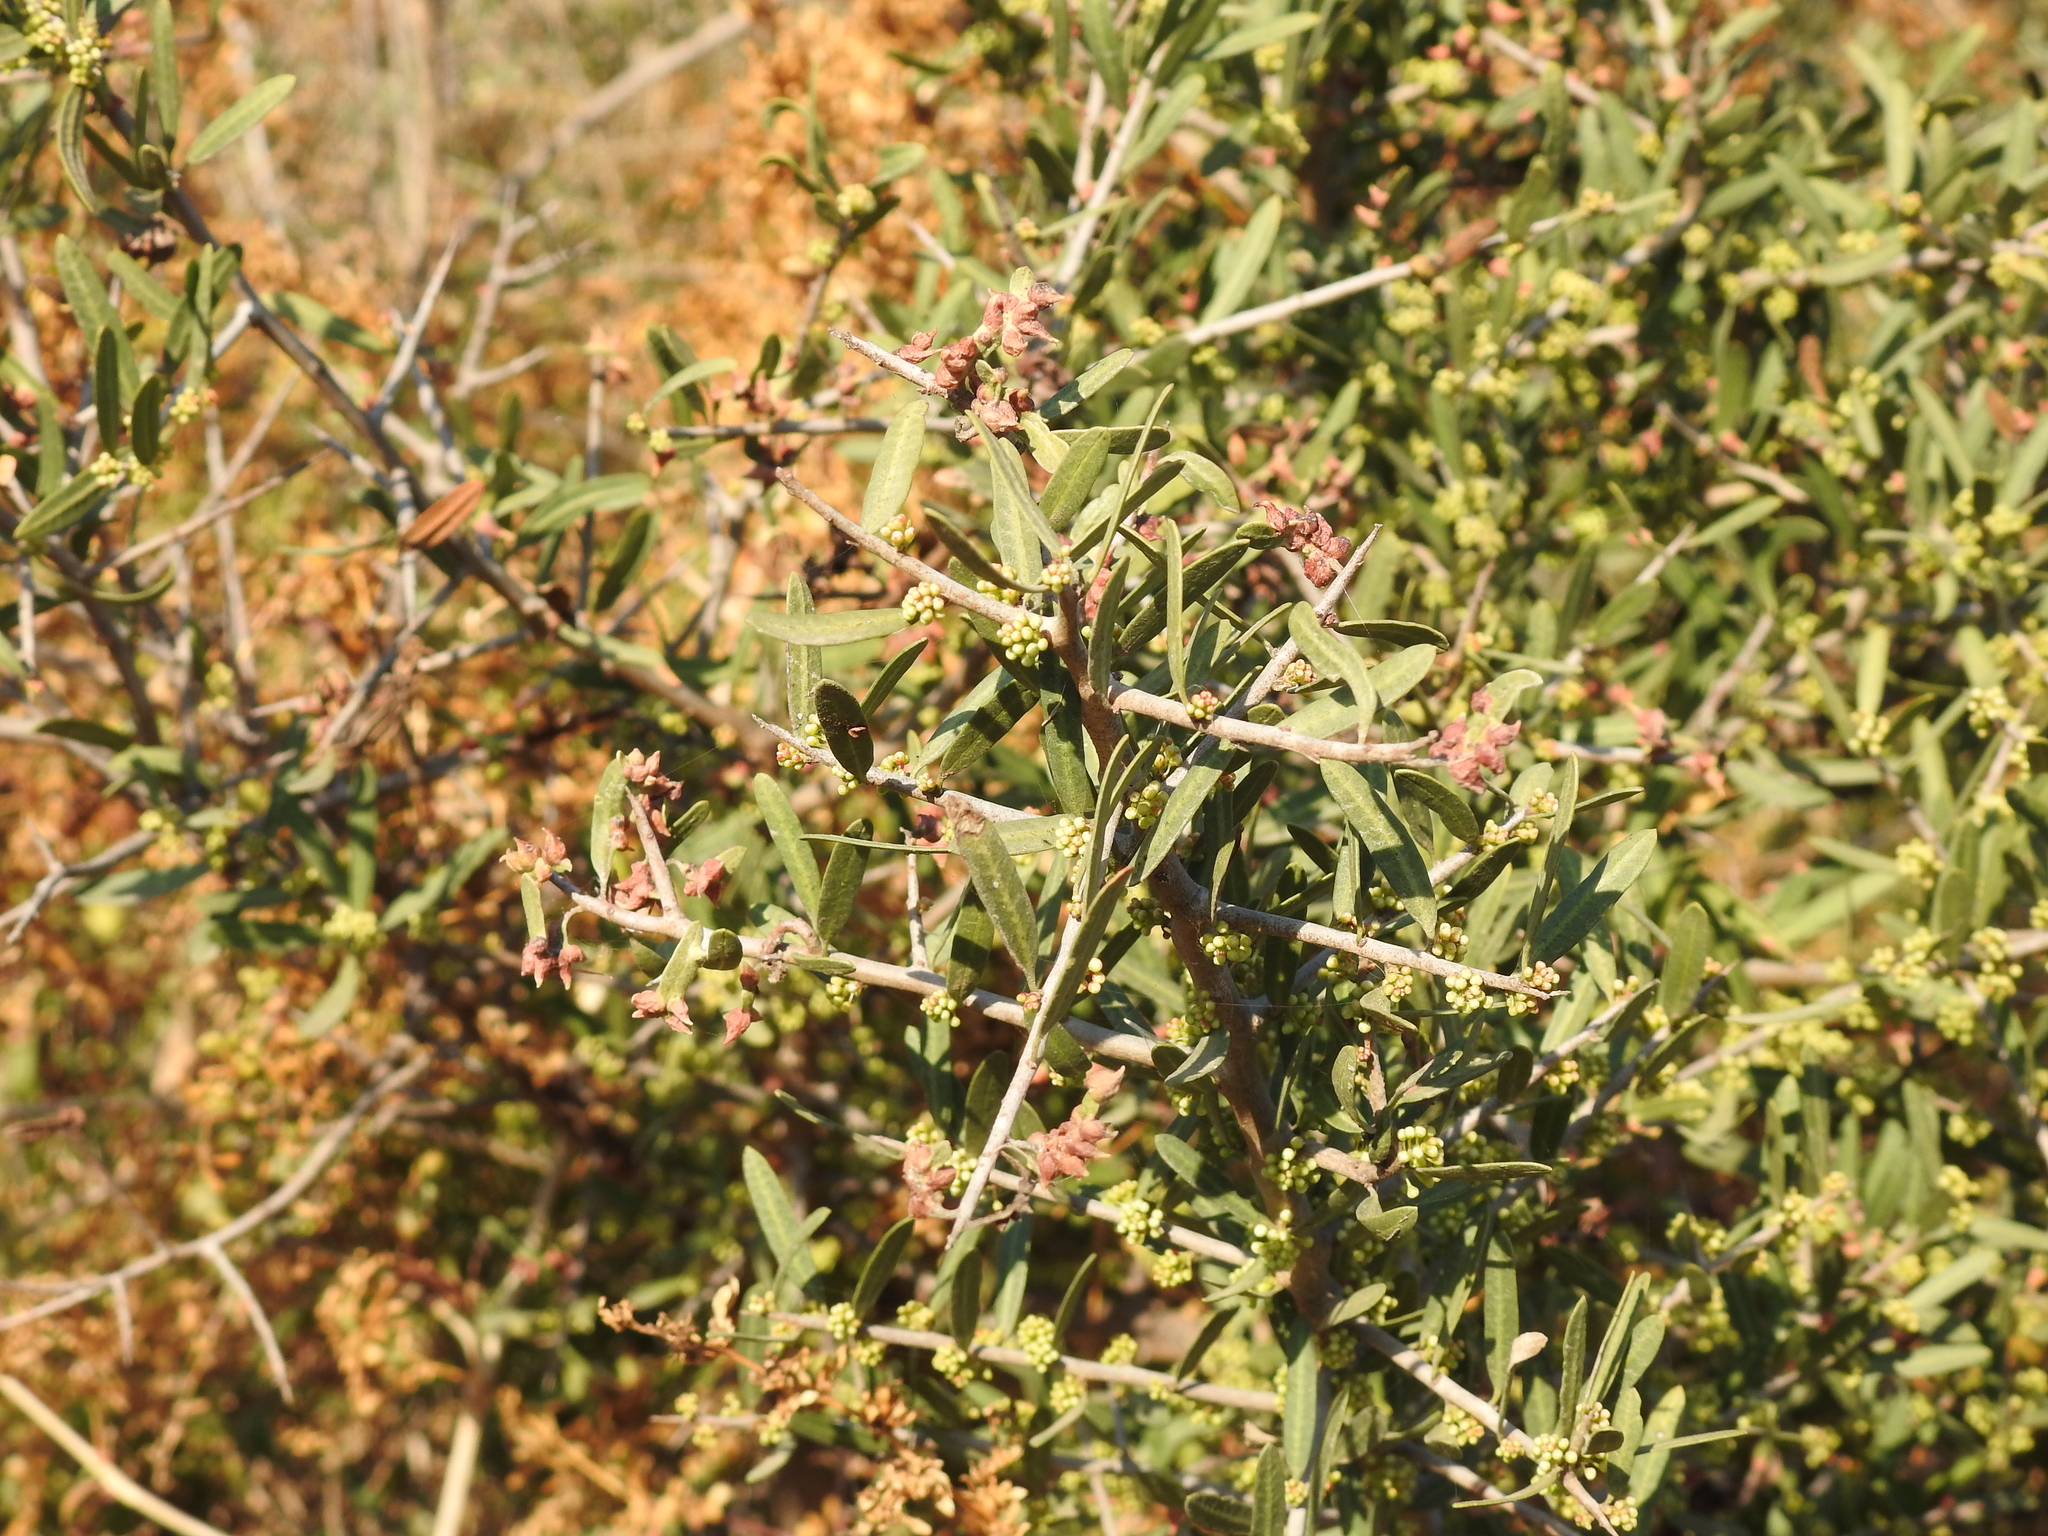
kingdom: Plantae
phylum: Tracheophyta
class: Magnoliopsida
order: Sapindales
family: Anacardiaceae
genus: Schinus
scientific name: Schinus longifolia
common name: Longleaf peppertree
